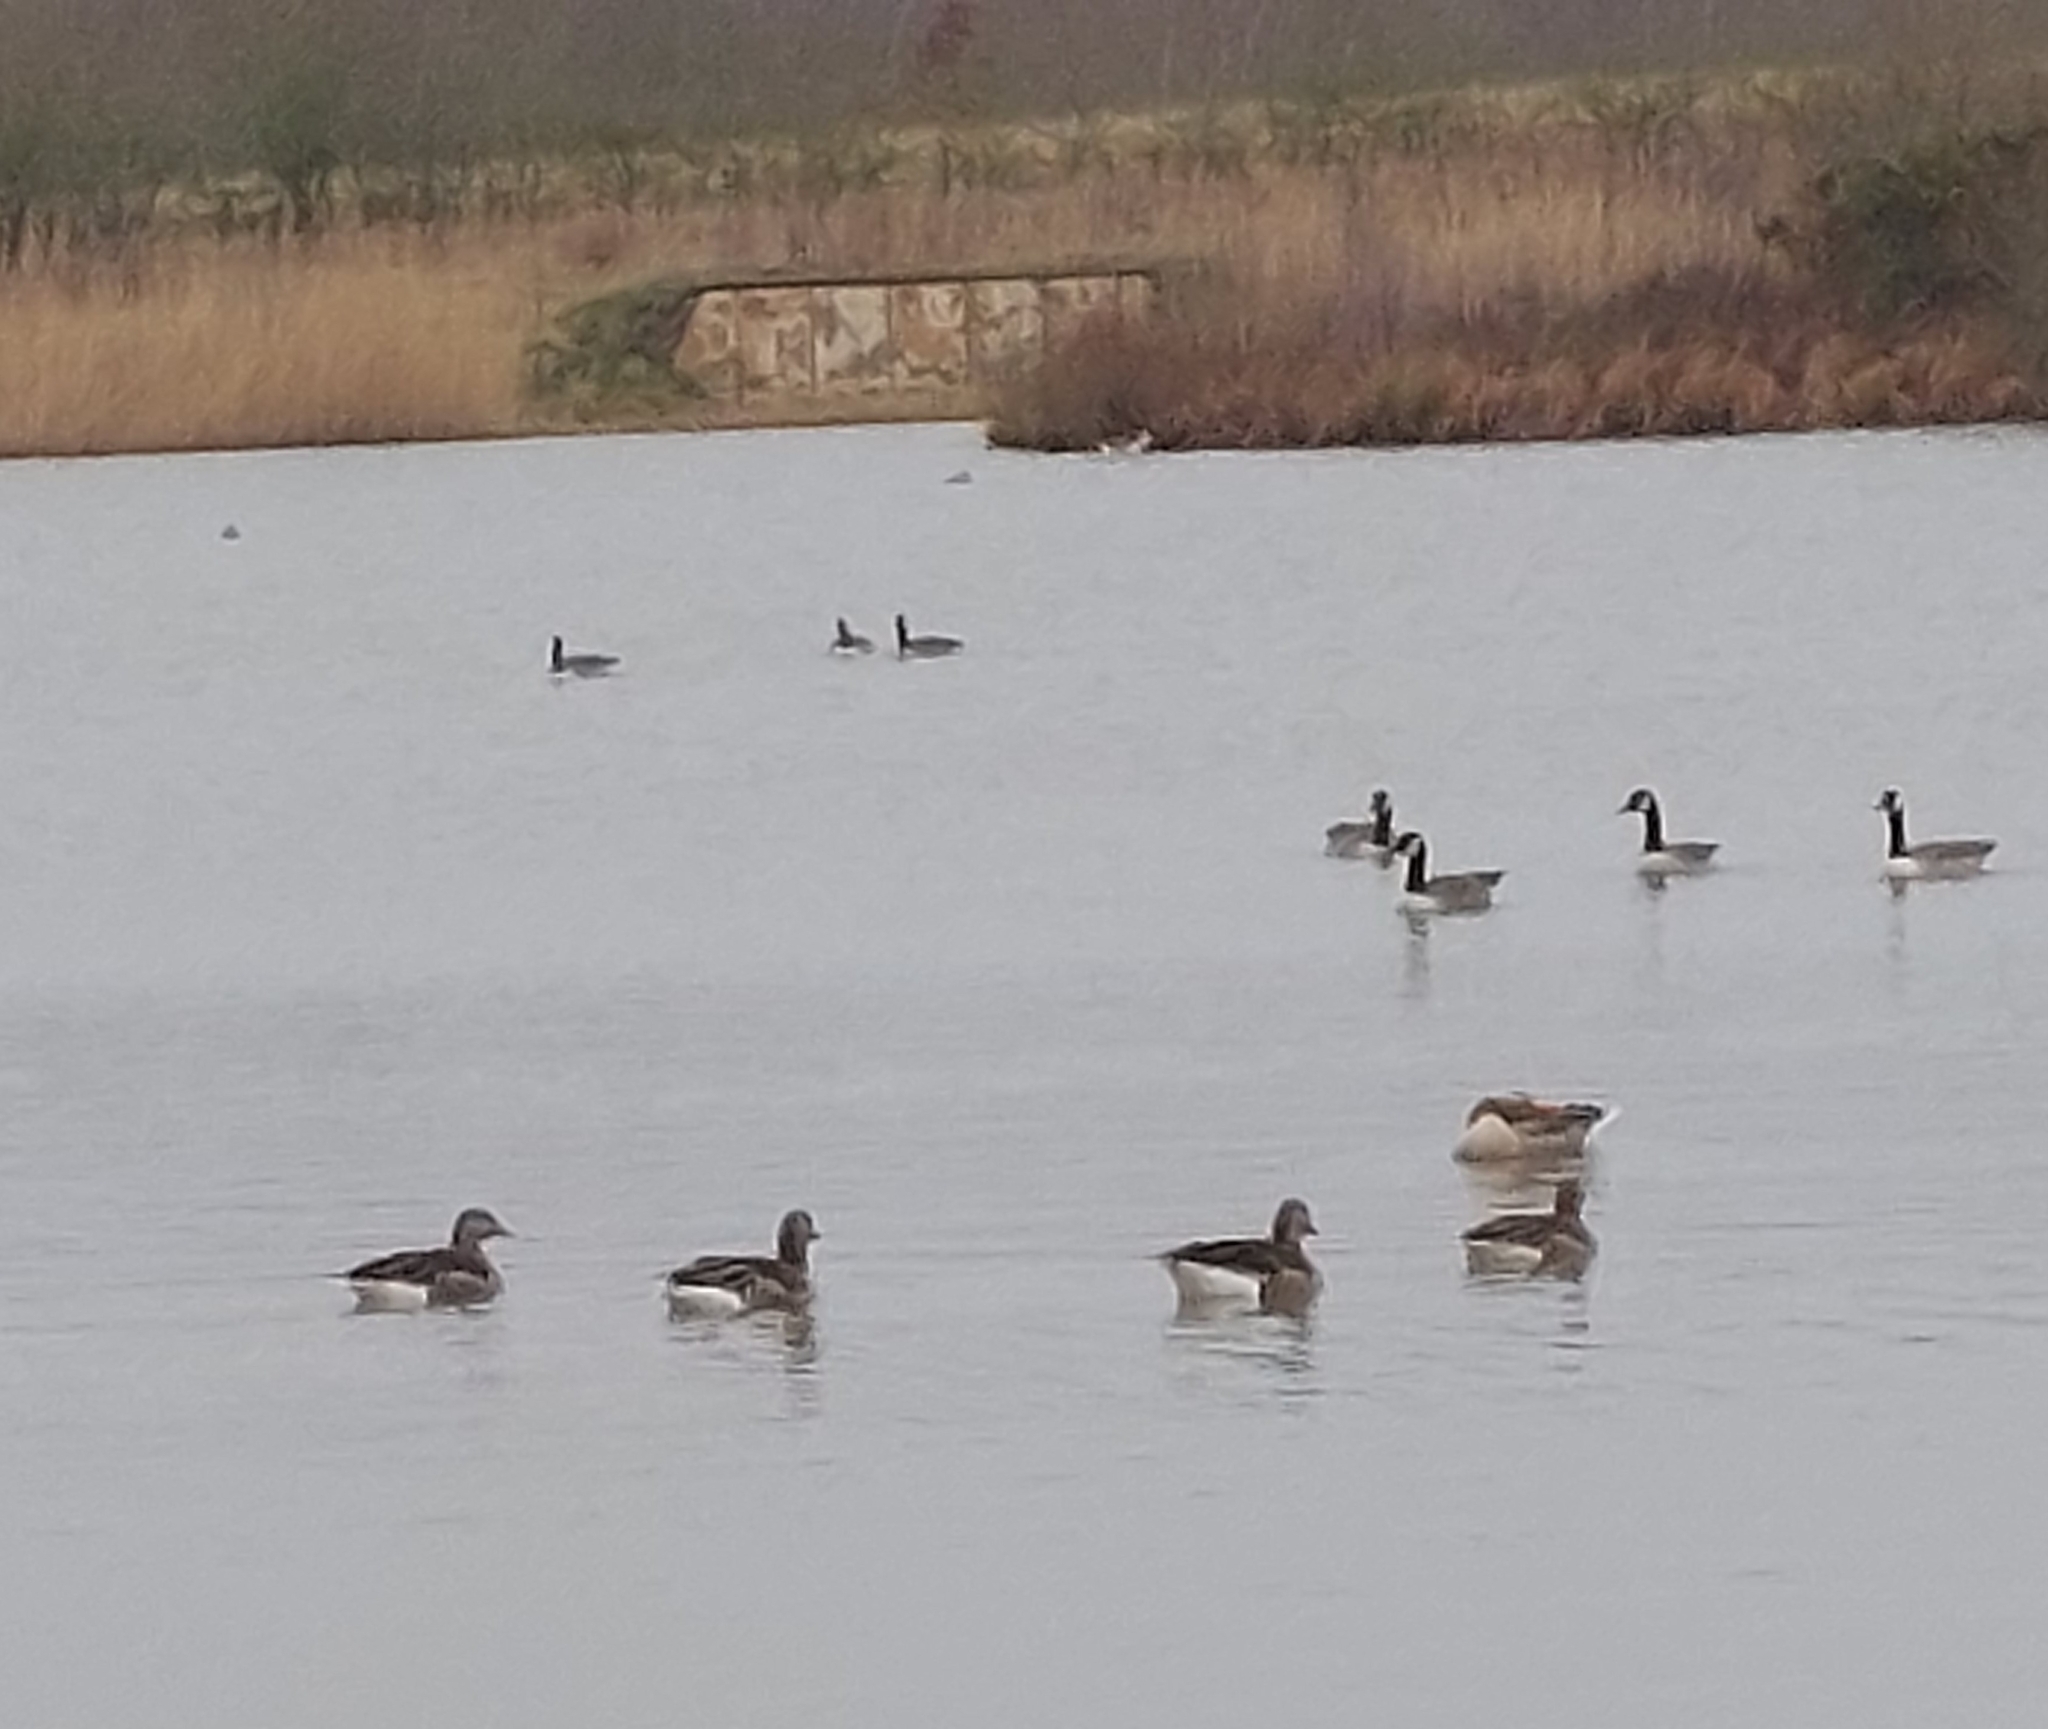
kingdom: Animalia
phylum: Chordata
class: Aves
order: Anseriformes
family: Anatidae
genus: Anser
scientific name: Anser anser
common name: Greylag goose
